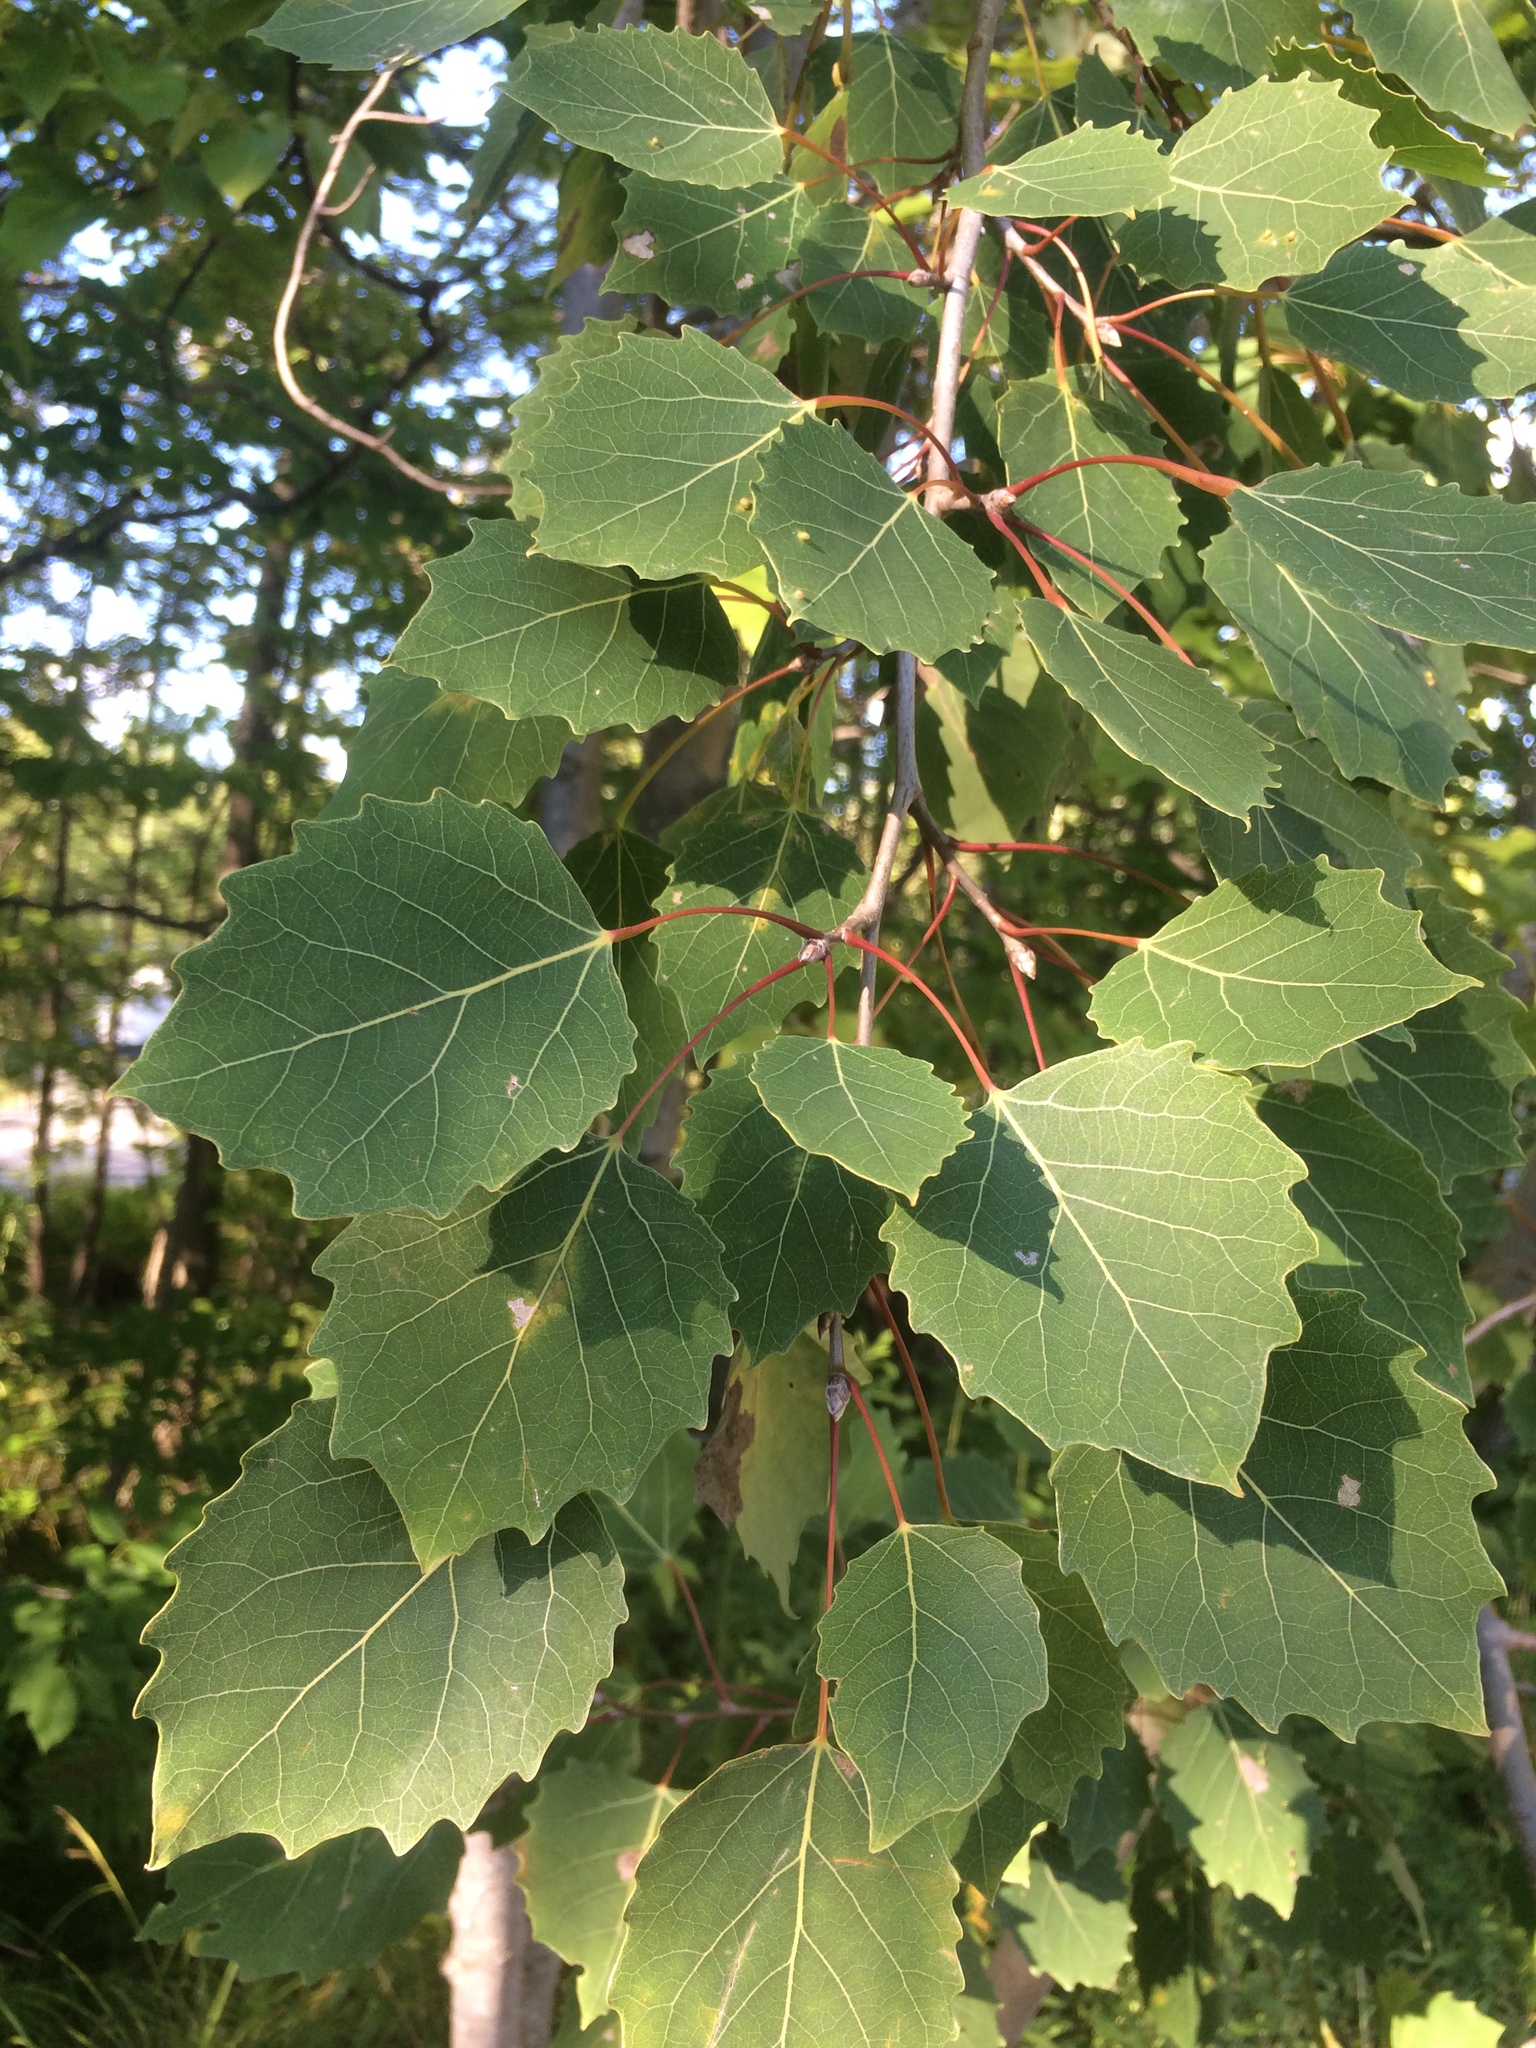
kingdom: Plantae
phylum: Tracheophyta
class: Magnoliopsida
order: Malpighiales
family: Salicaceae
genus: Populus
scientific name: Populus grandidentata
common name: Bigtooth aspen
